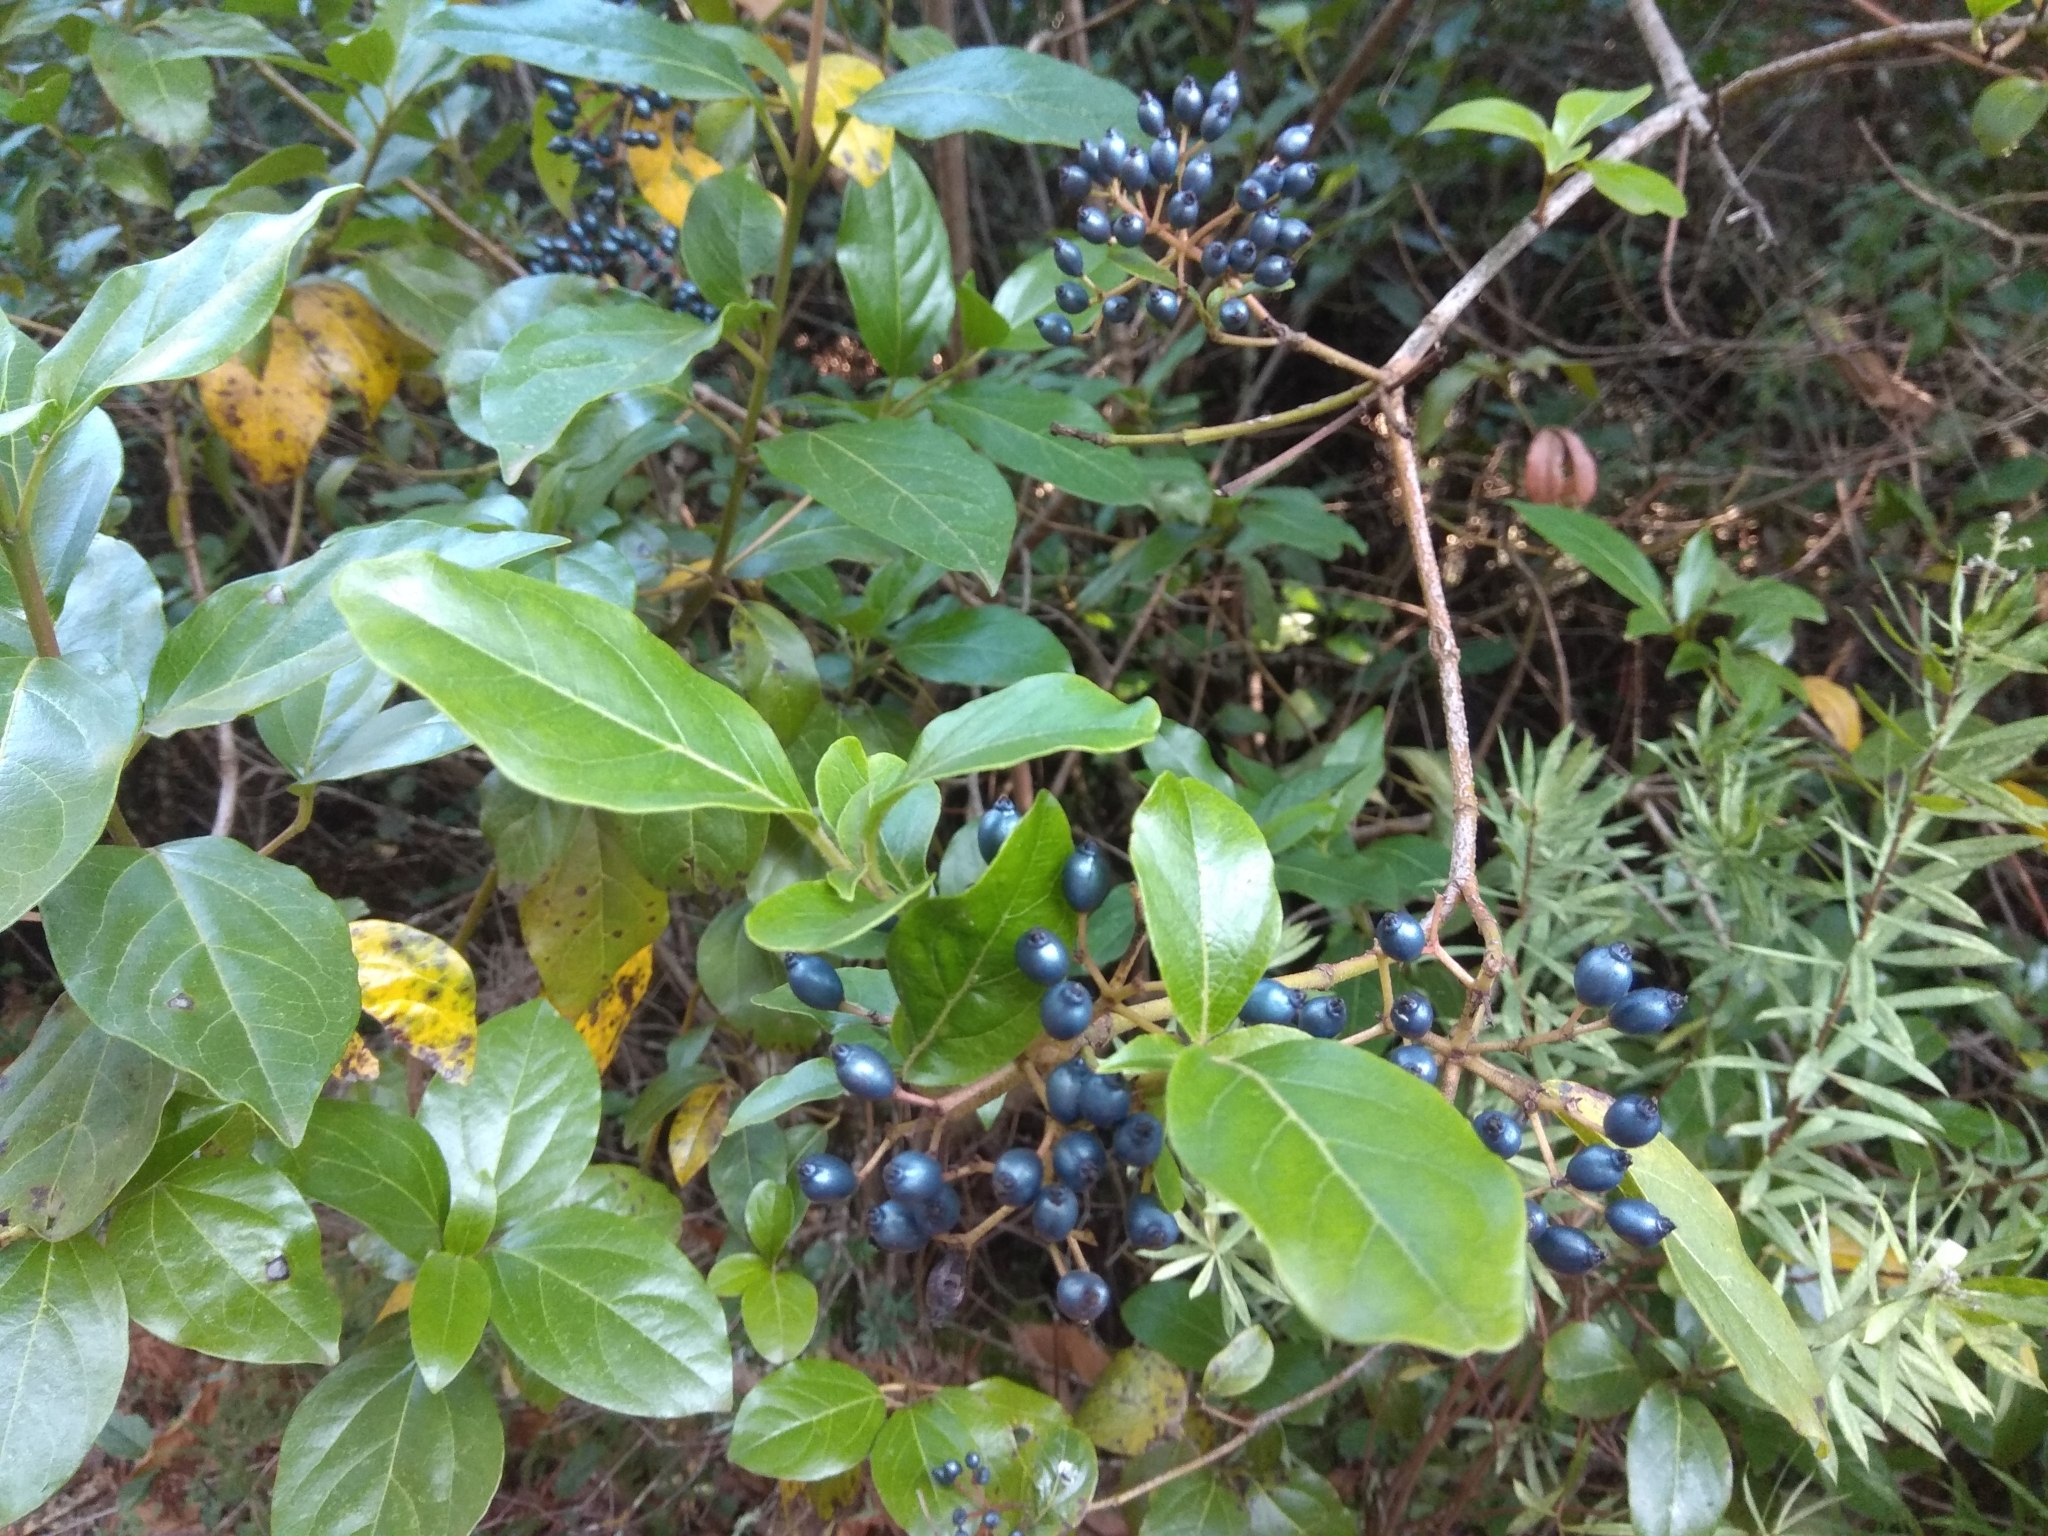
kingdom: Plantae
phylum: Tracheophyta
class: Magnoliopsida
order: Dipsacales
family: Viburnaceae
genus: Viburnum
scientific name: Viburnum tinus
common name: Laurustinus
